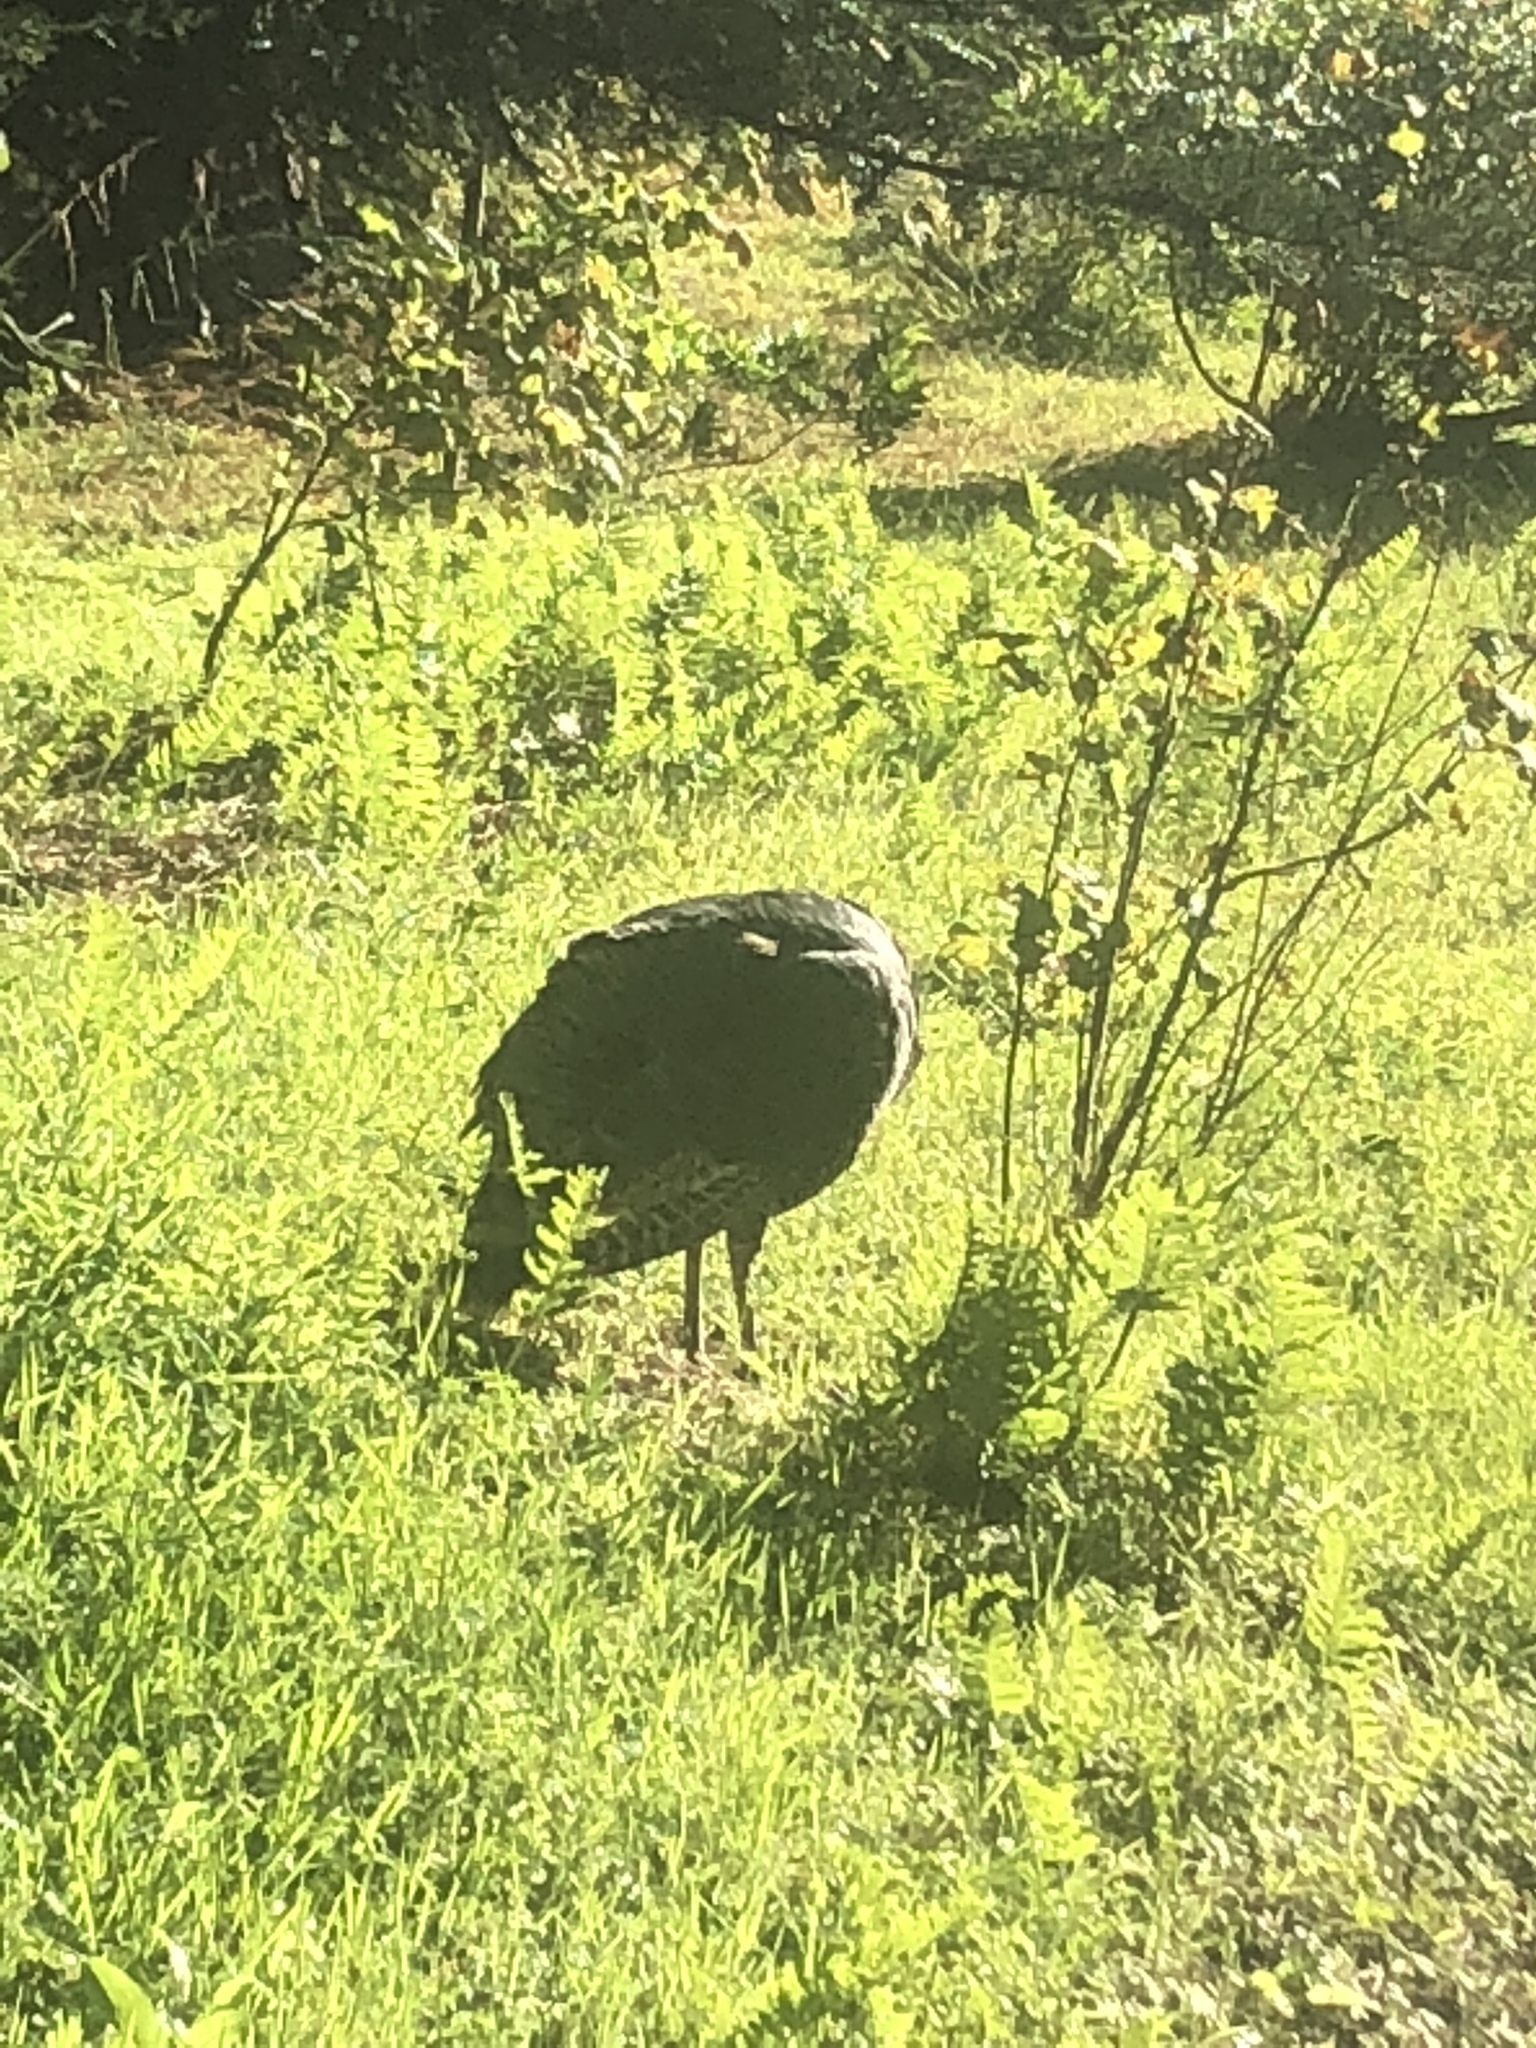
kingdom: Animalia
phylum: Chordata
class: Aves
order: Galliformes
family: Phasianidae
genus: Meleagris
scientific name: Meleagris gallopavo
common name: Wild turkey
